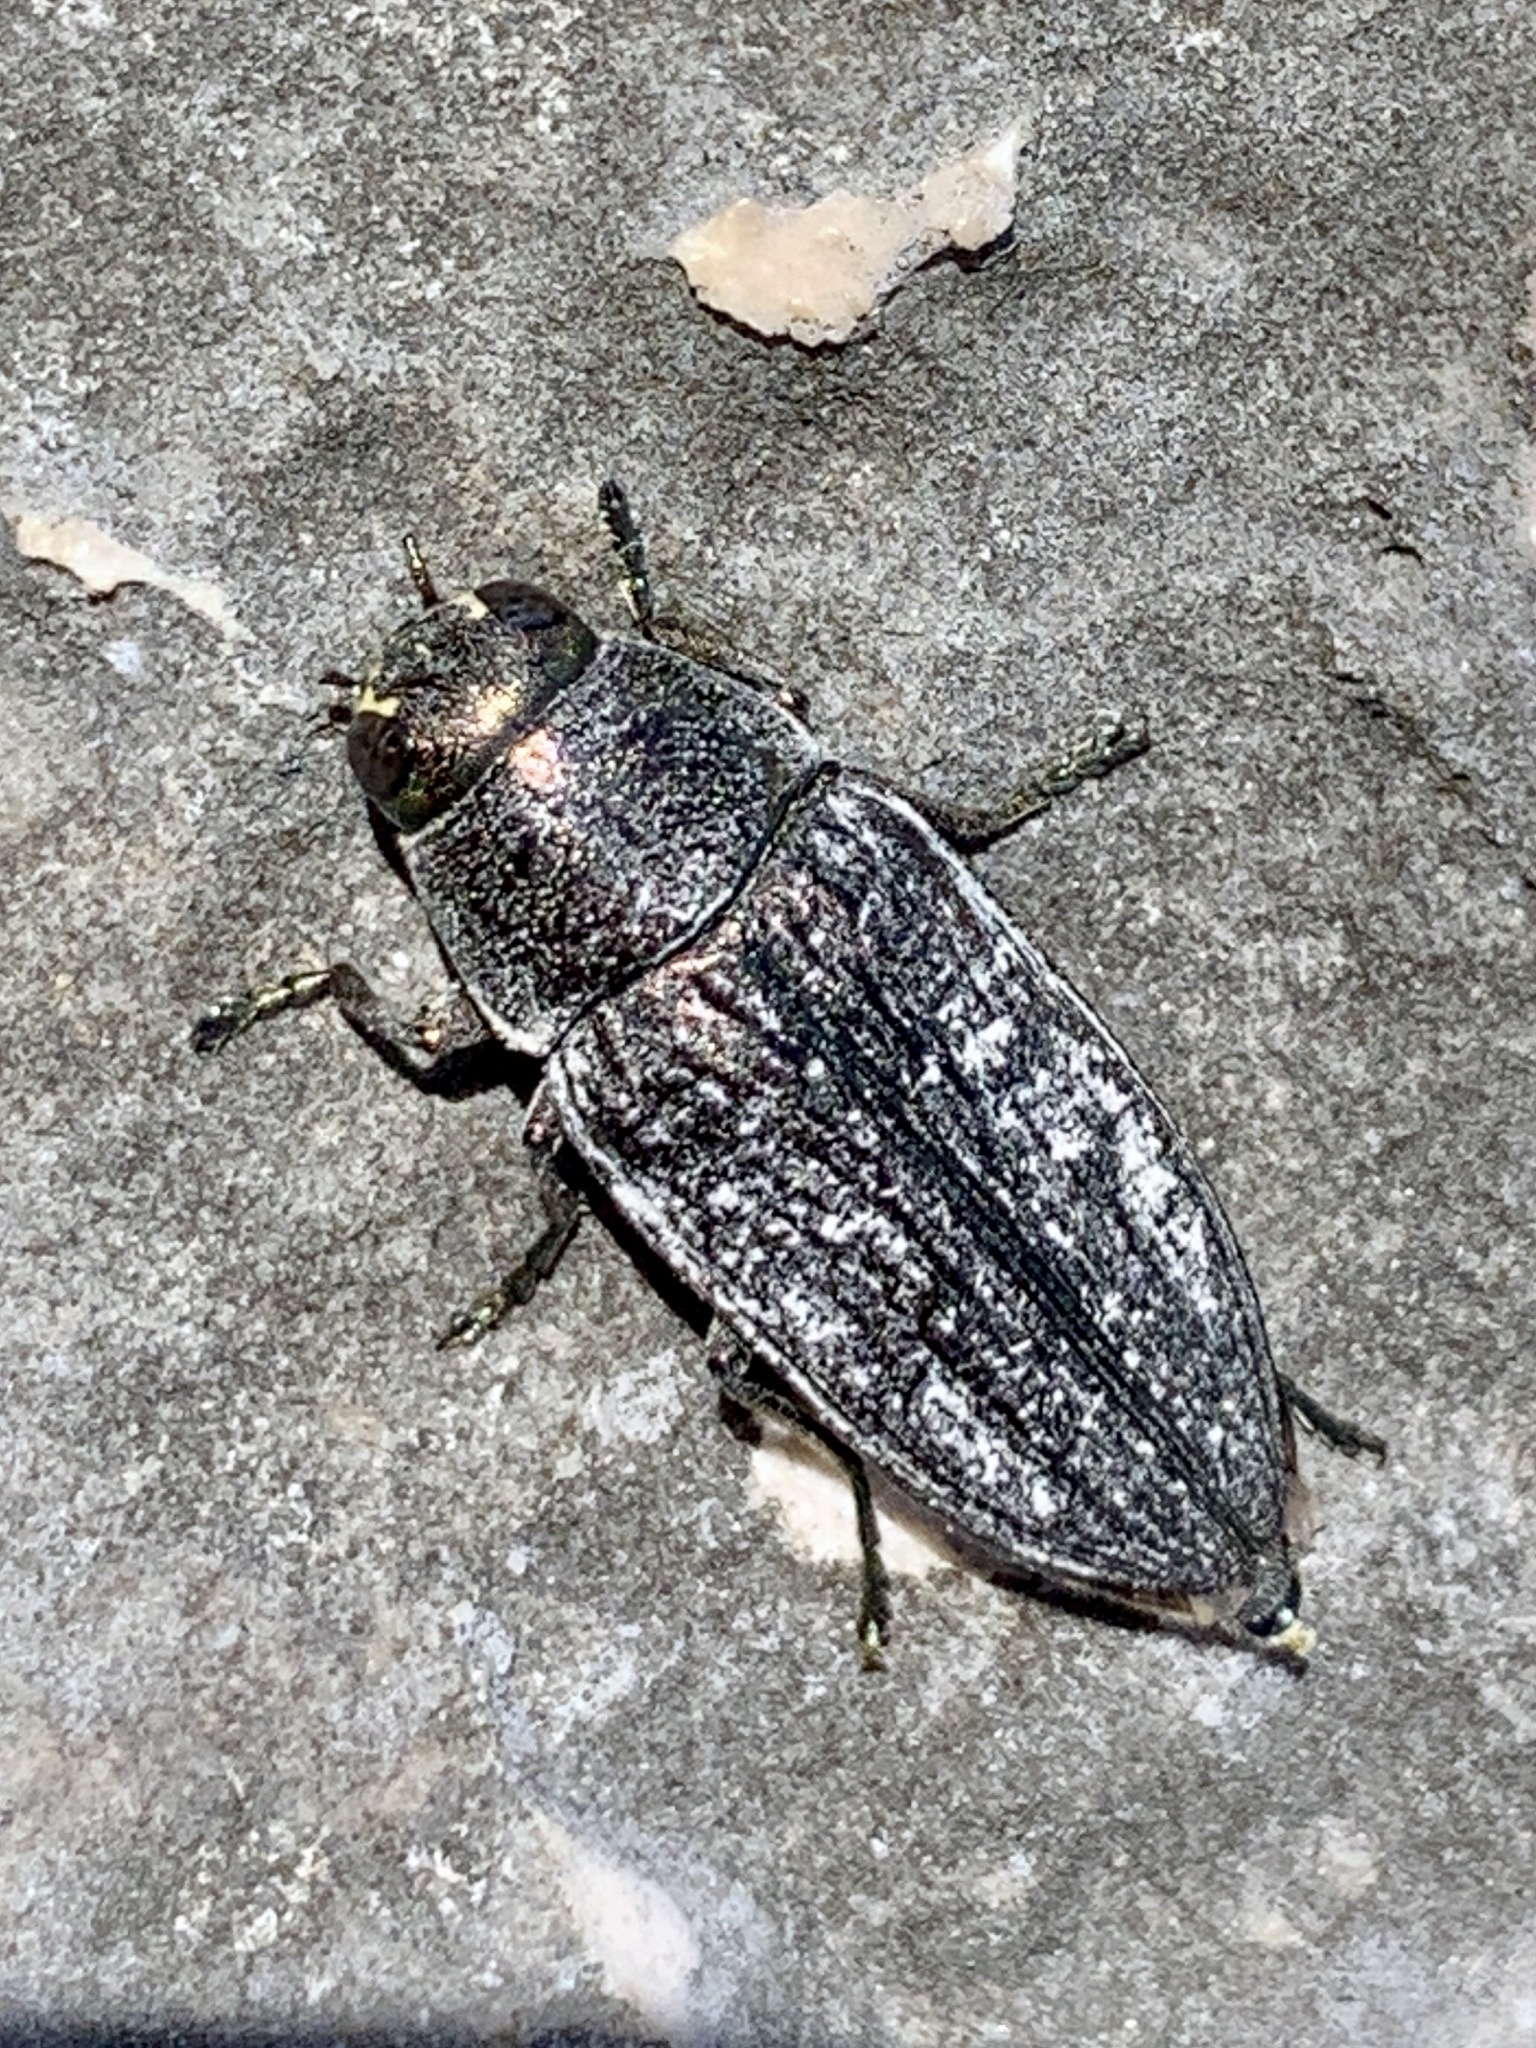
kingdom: Animalia
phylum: Arthropoda
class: Insecta
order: Coleoptera
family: Buprestidae
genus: Buprestis
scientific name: Buprestis haemorrhoidalis
